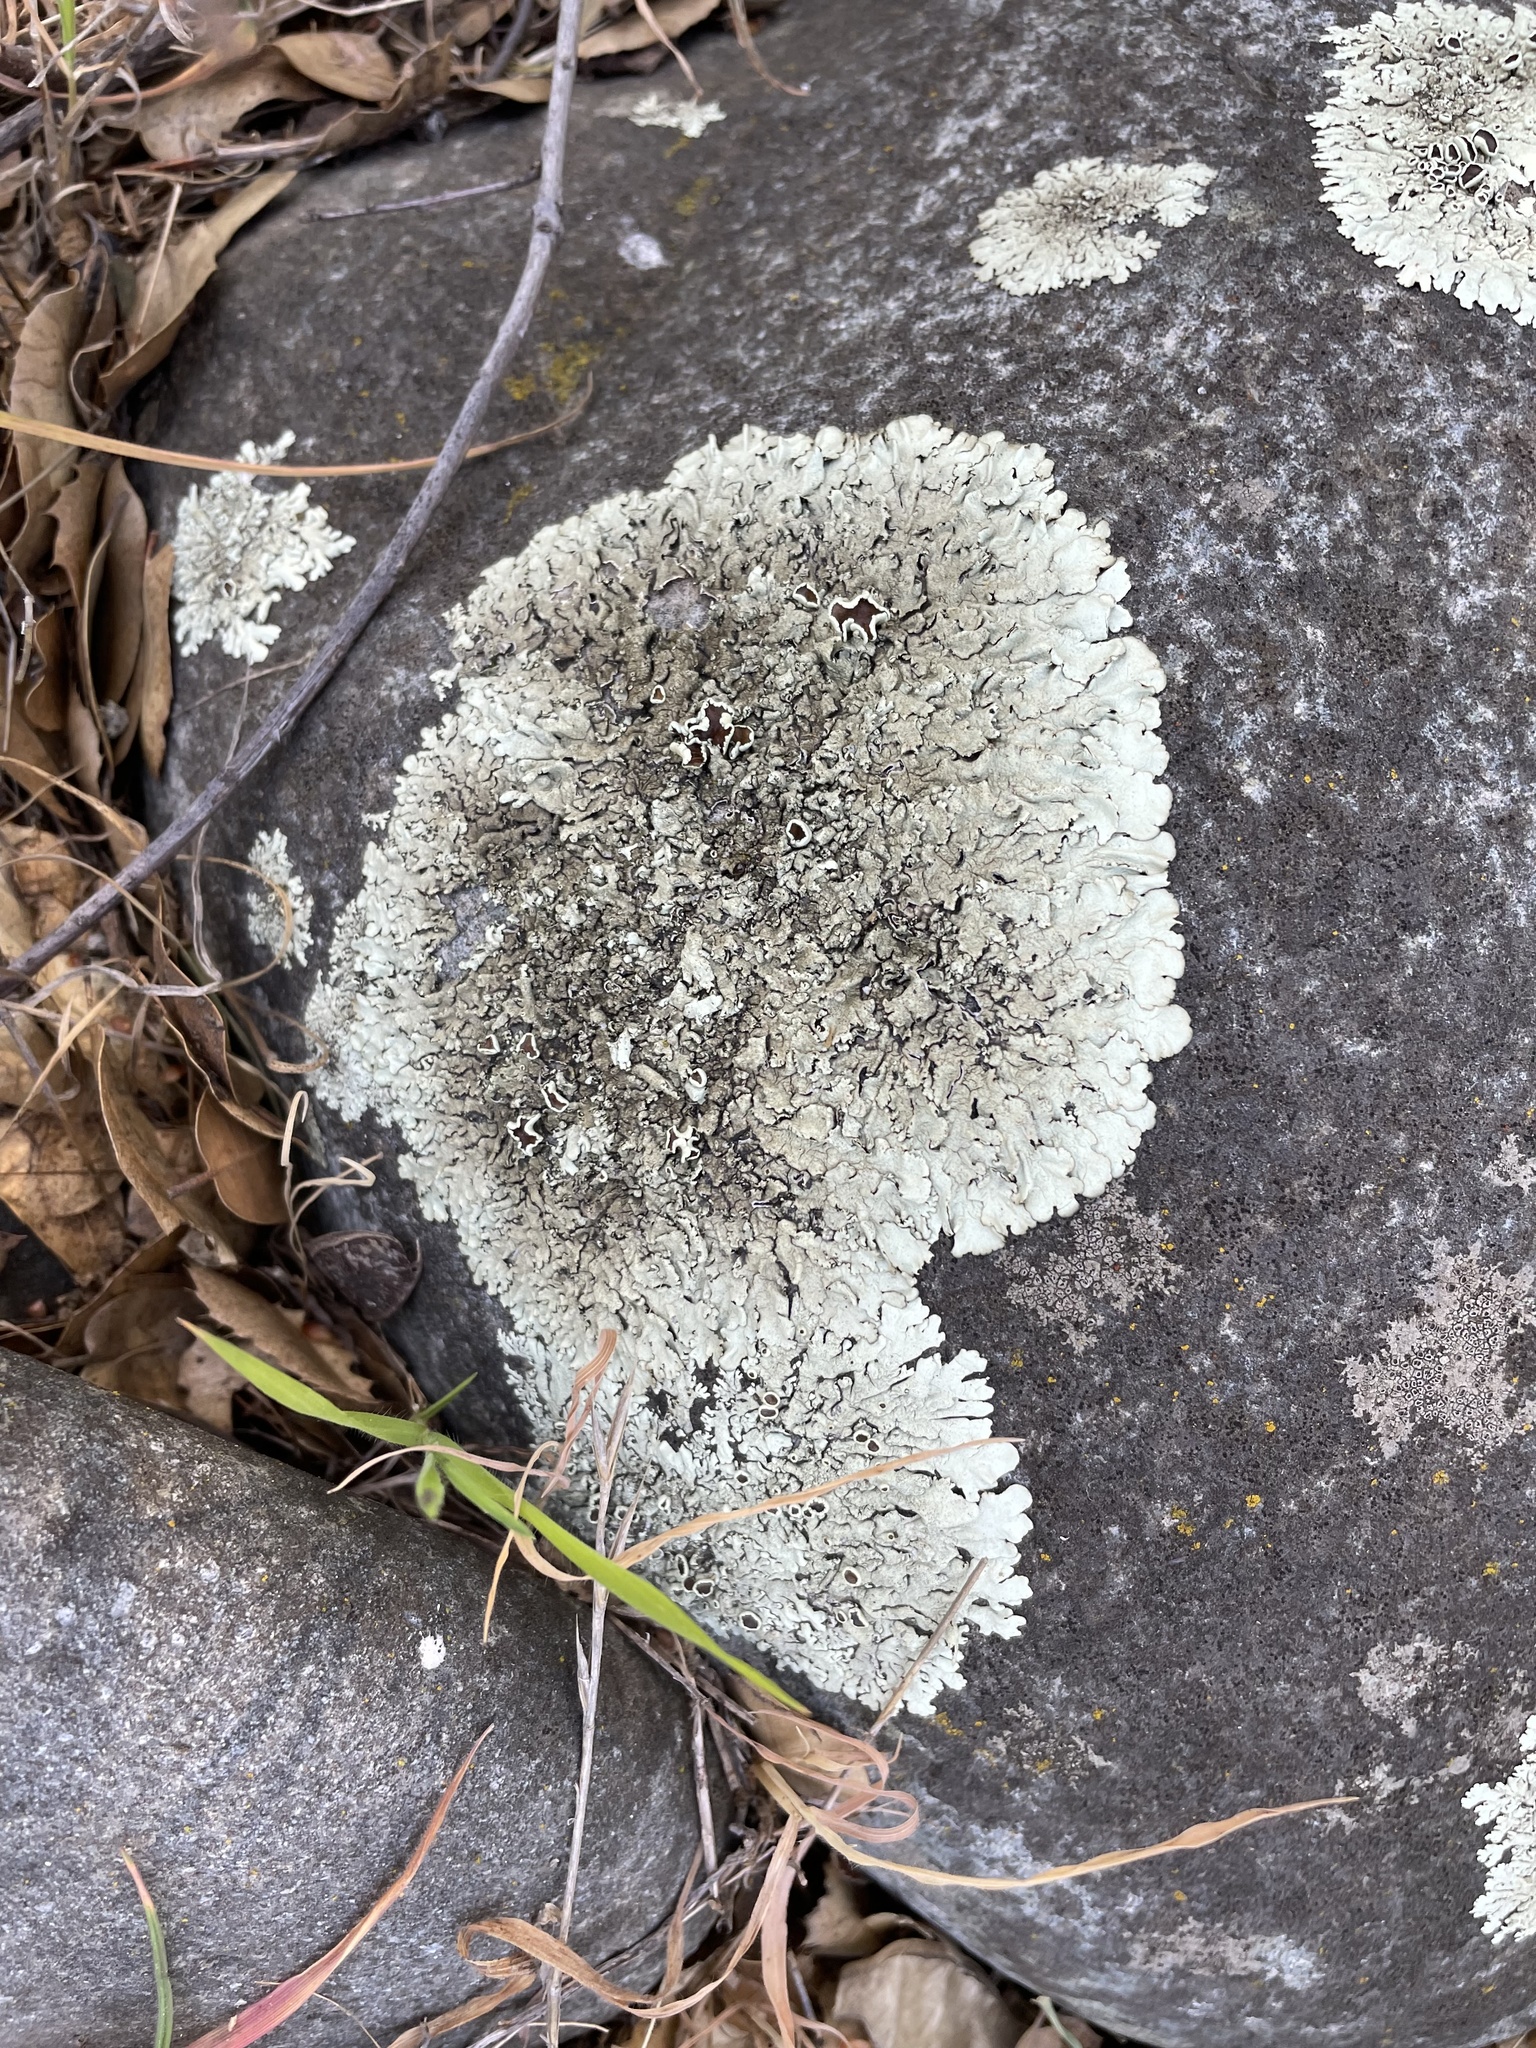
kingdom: Fungi
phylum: Ascomycota
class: Lecanoromycetes
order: Lecanorales
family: Parmeliaceae
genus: Xanthoparmelia
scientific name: Xanthoparmelia cumberlandia
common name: Cumberland rock shield
